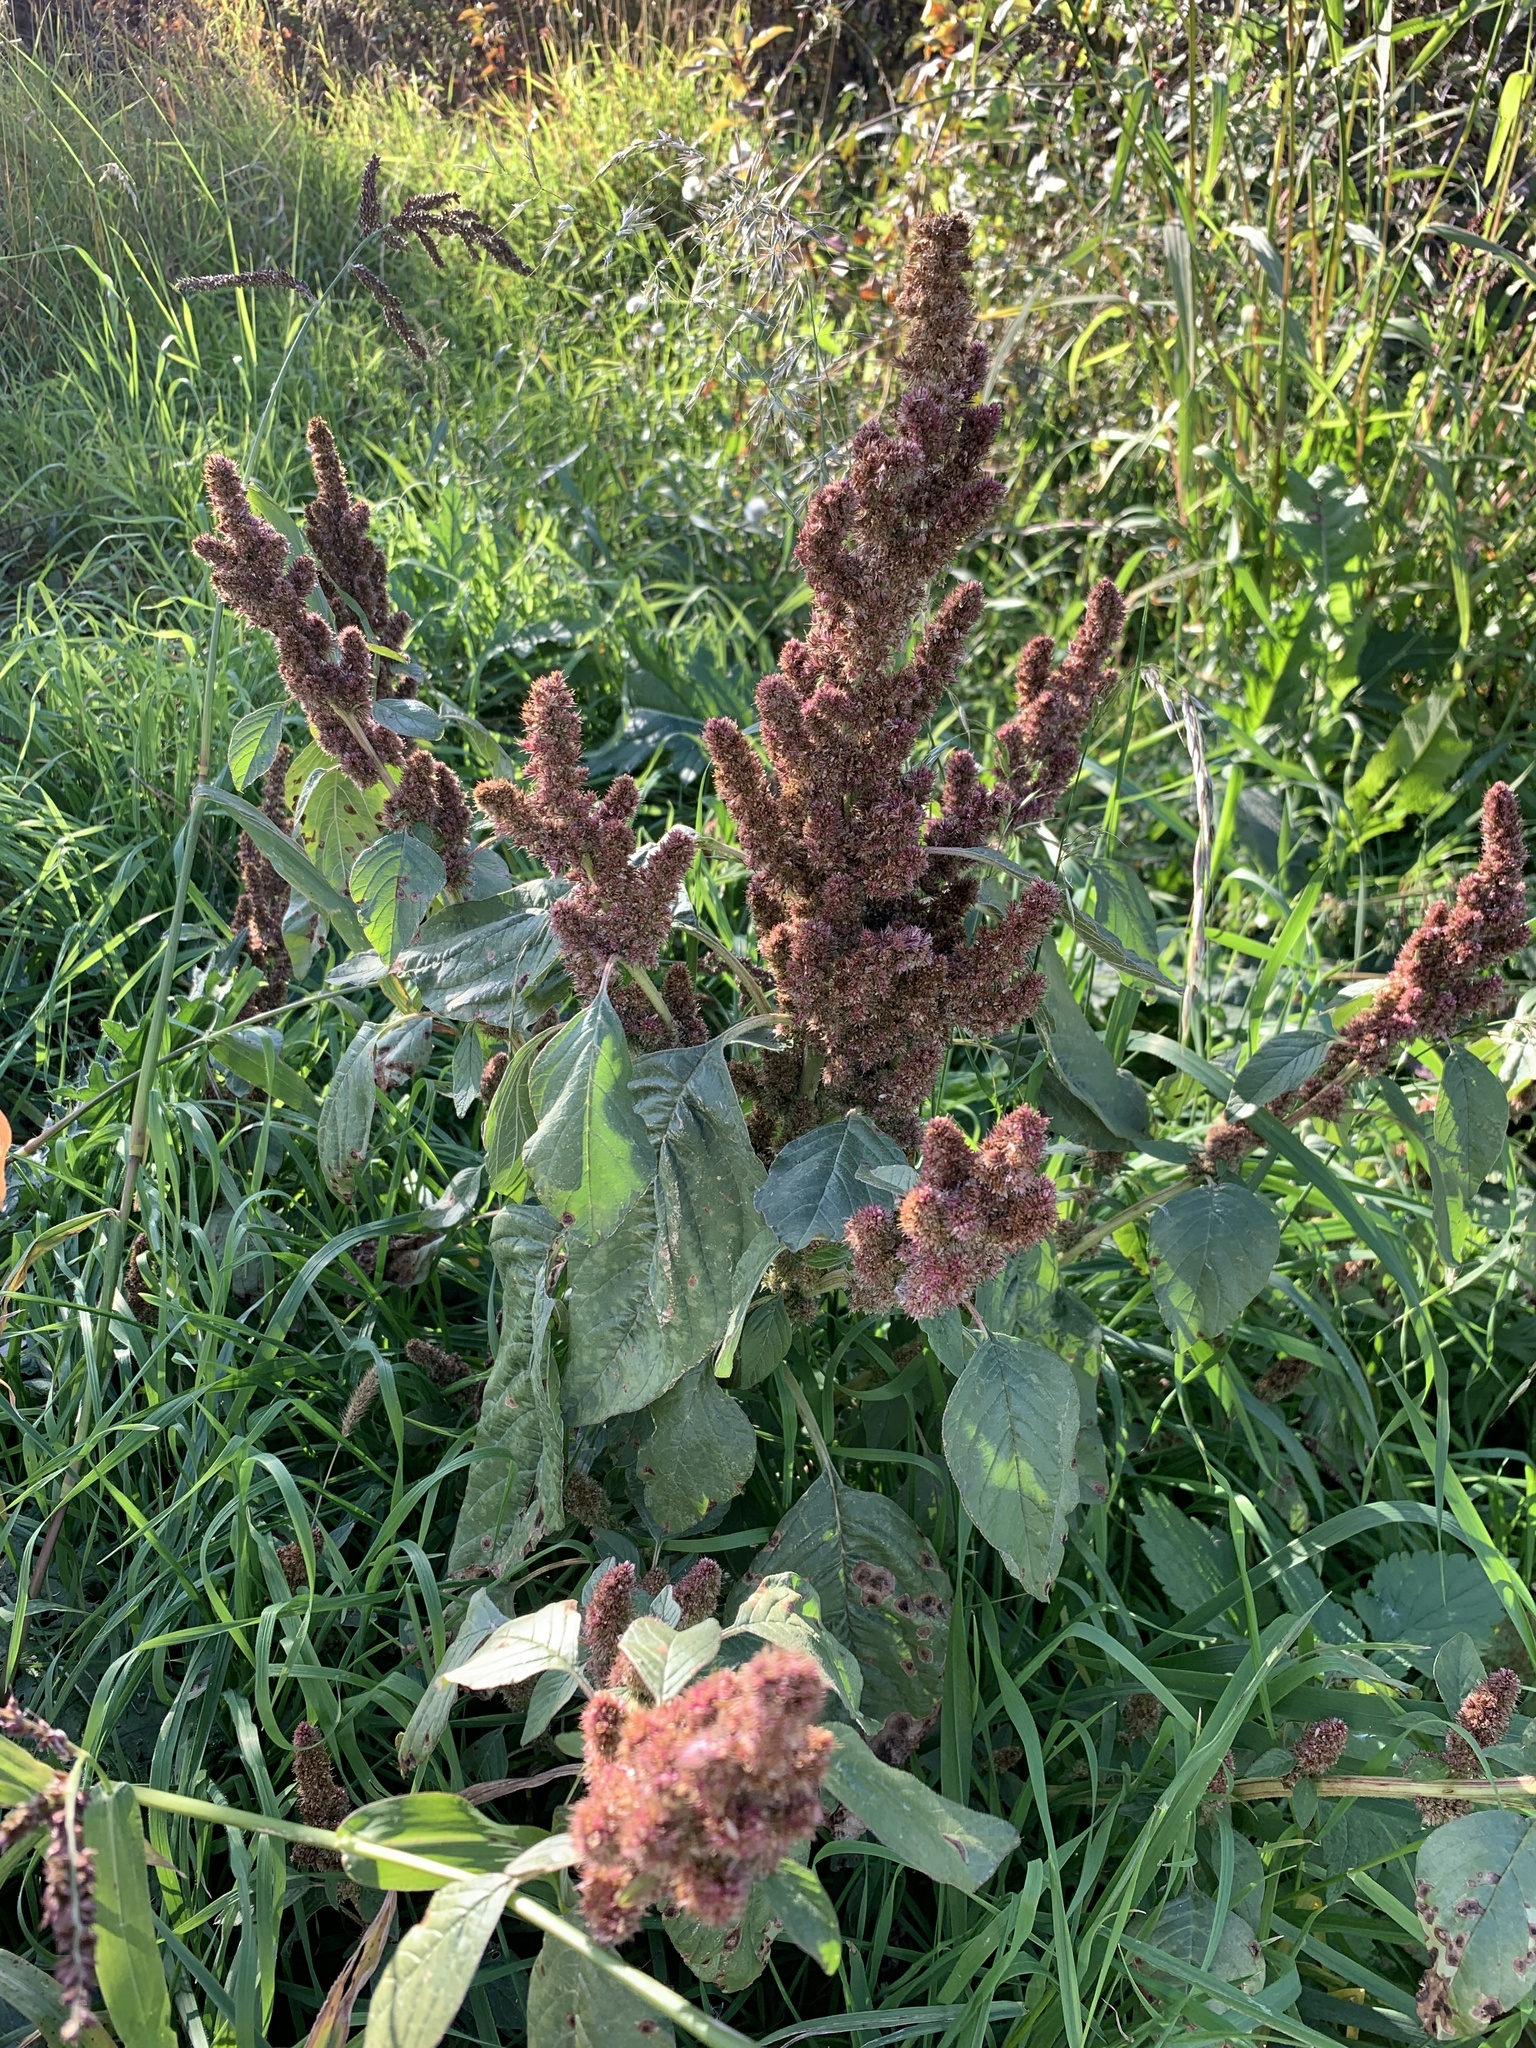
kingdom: Plantae
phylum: Tracheophyta
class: Magnoliopsida
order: Caryophyllales
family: Amaranthaceae
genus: Amaranthus
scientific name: Amaranthus retroflexus
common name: Redroot amaranth
